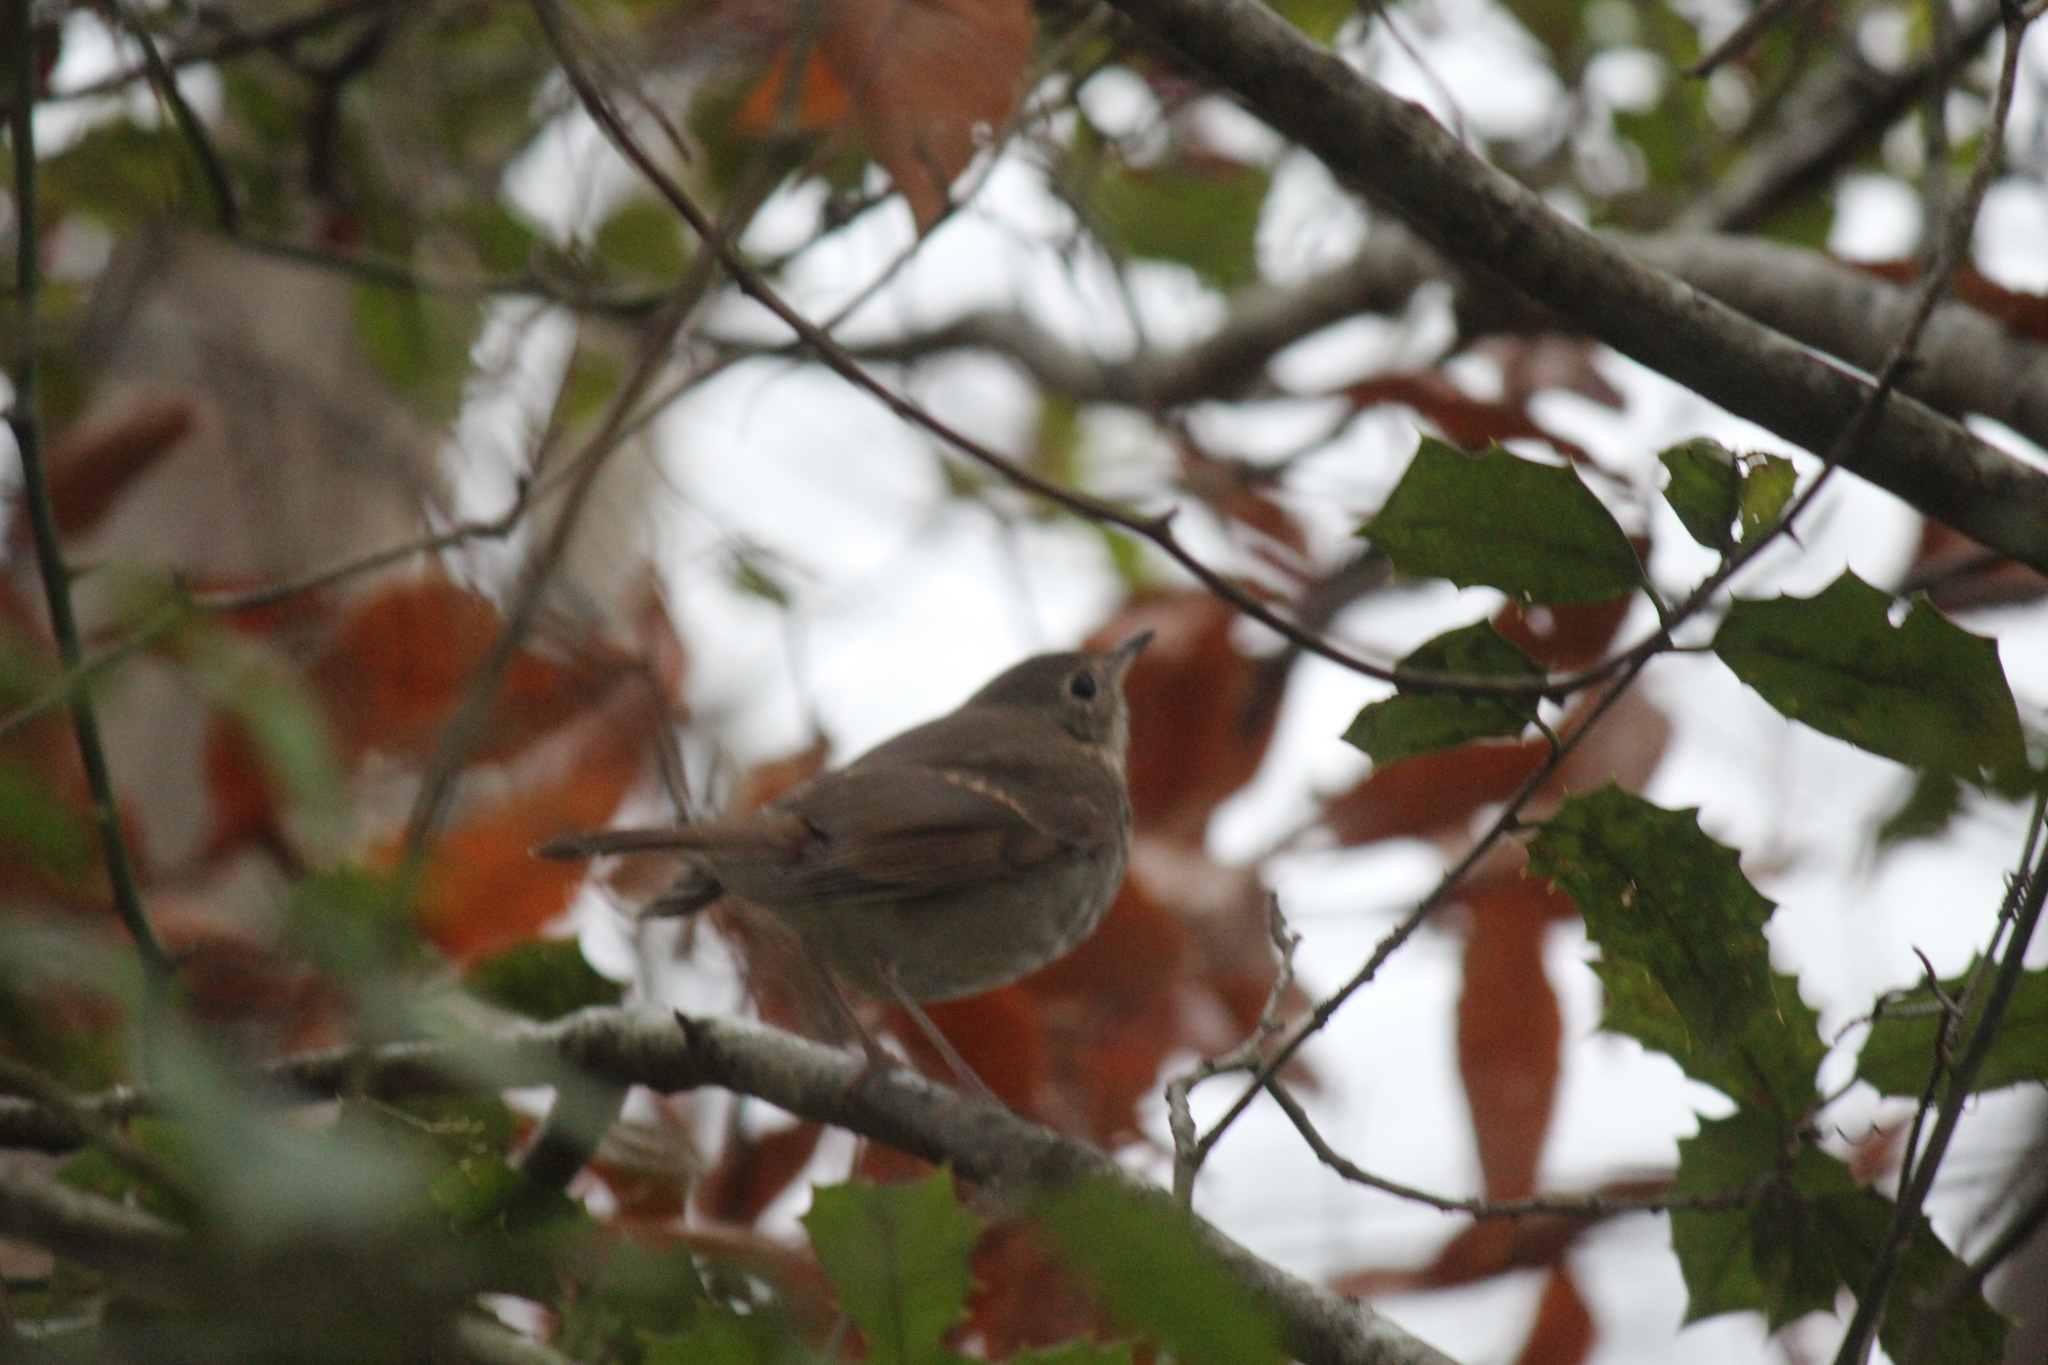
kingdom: Animalia
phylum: Chordata
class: Aves
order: Passeriformes
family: Turdidae
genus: Catharus
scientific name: Catharus guttatus
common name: Hermit thrush
